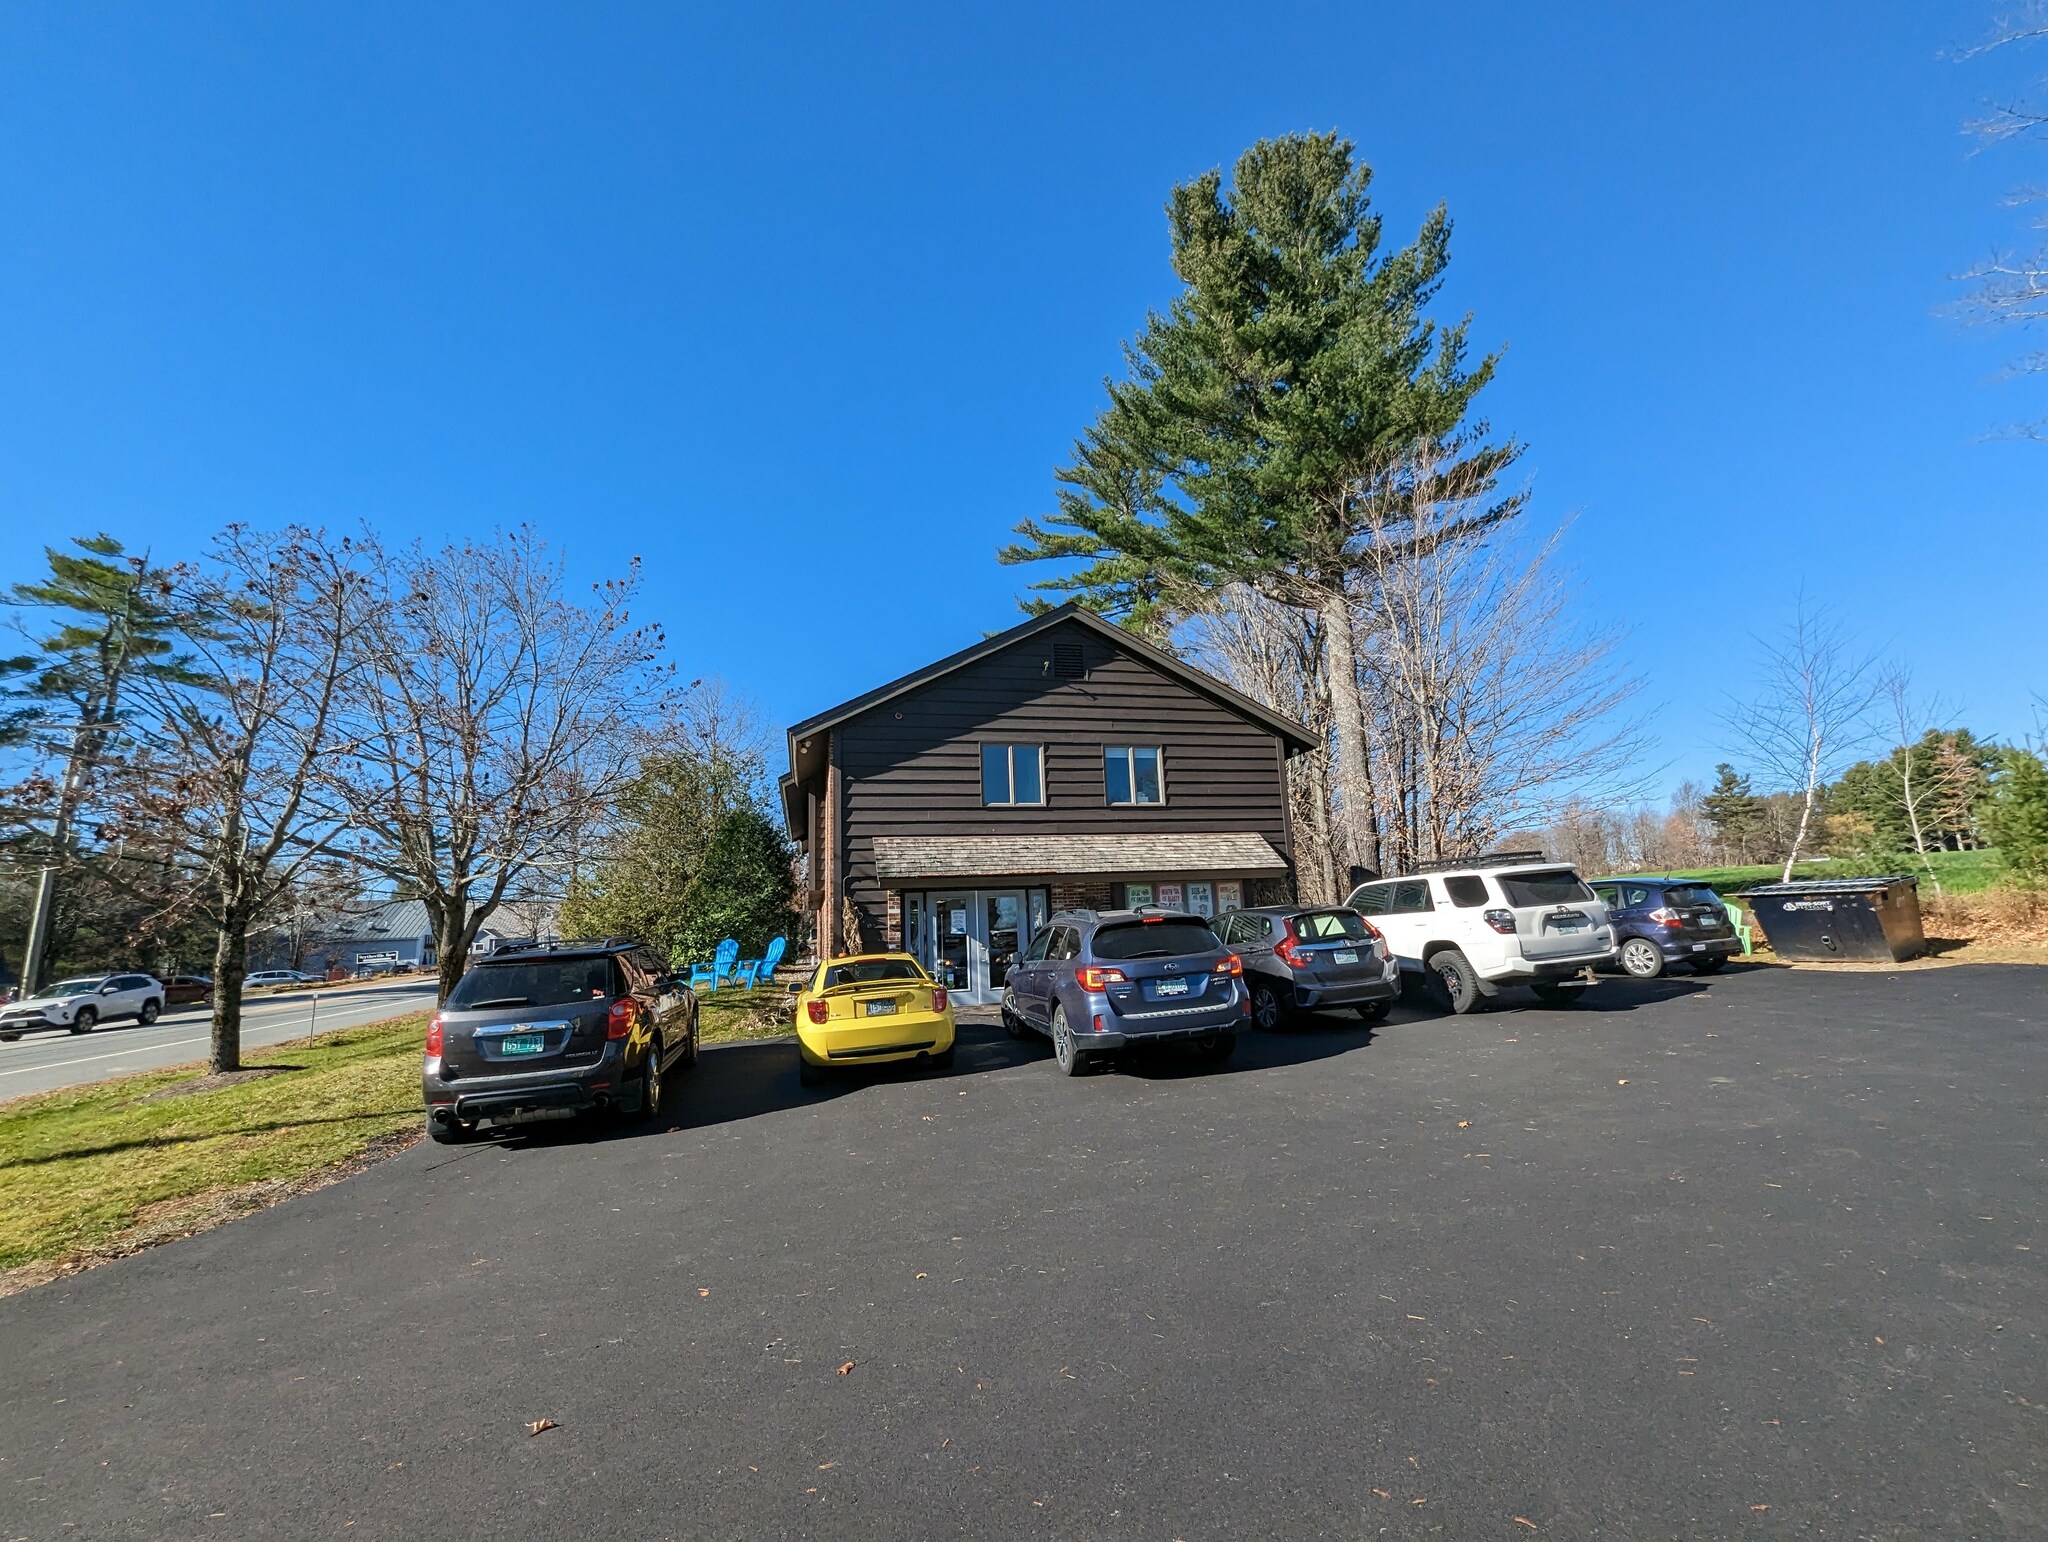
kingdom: Plantae
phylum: Tracheophyta
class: Pinopsida
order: Pinales
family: Pinaceae
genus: Pinus
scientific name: Pinus strobus
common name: Weymouth pine
